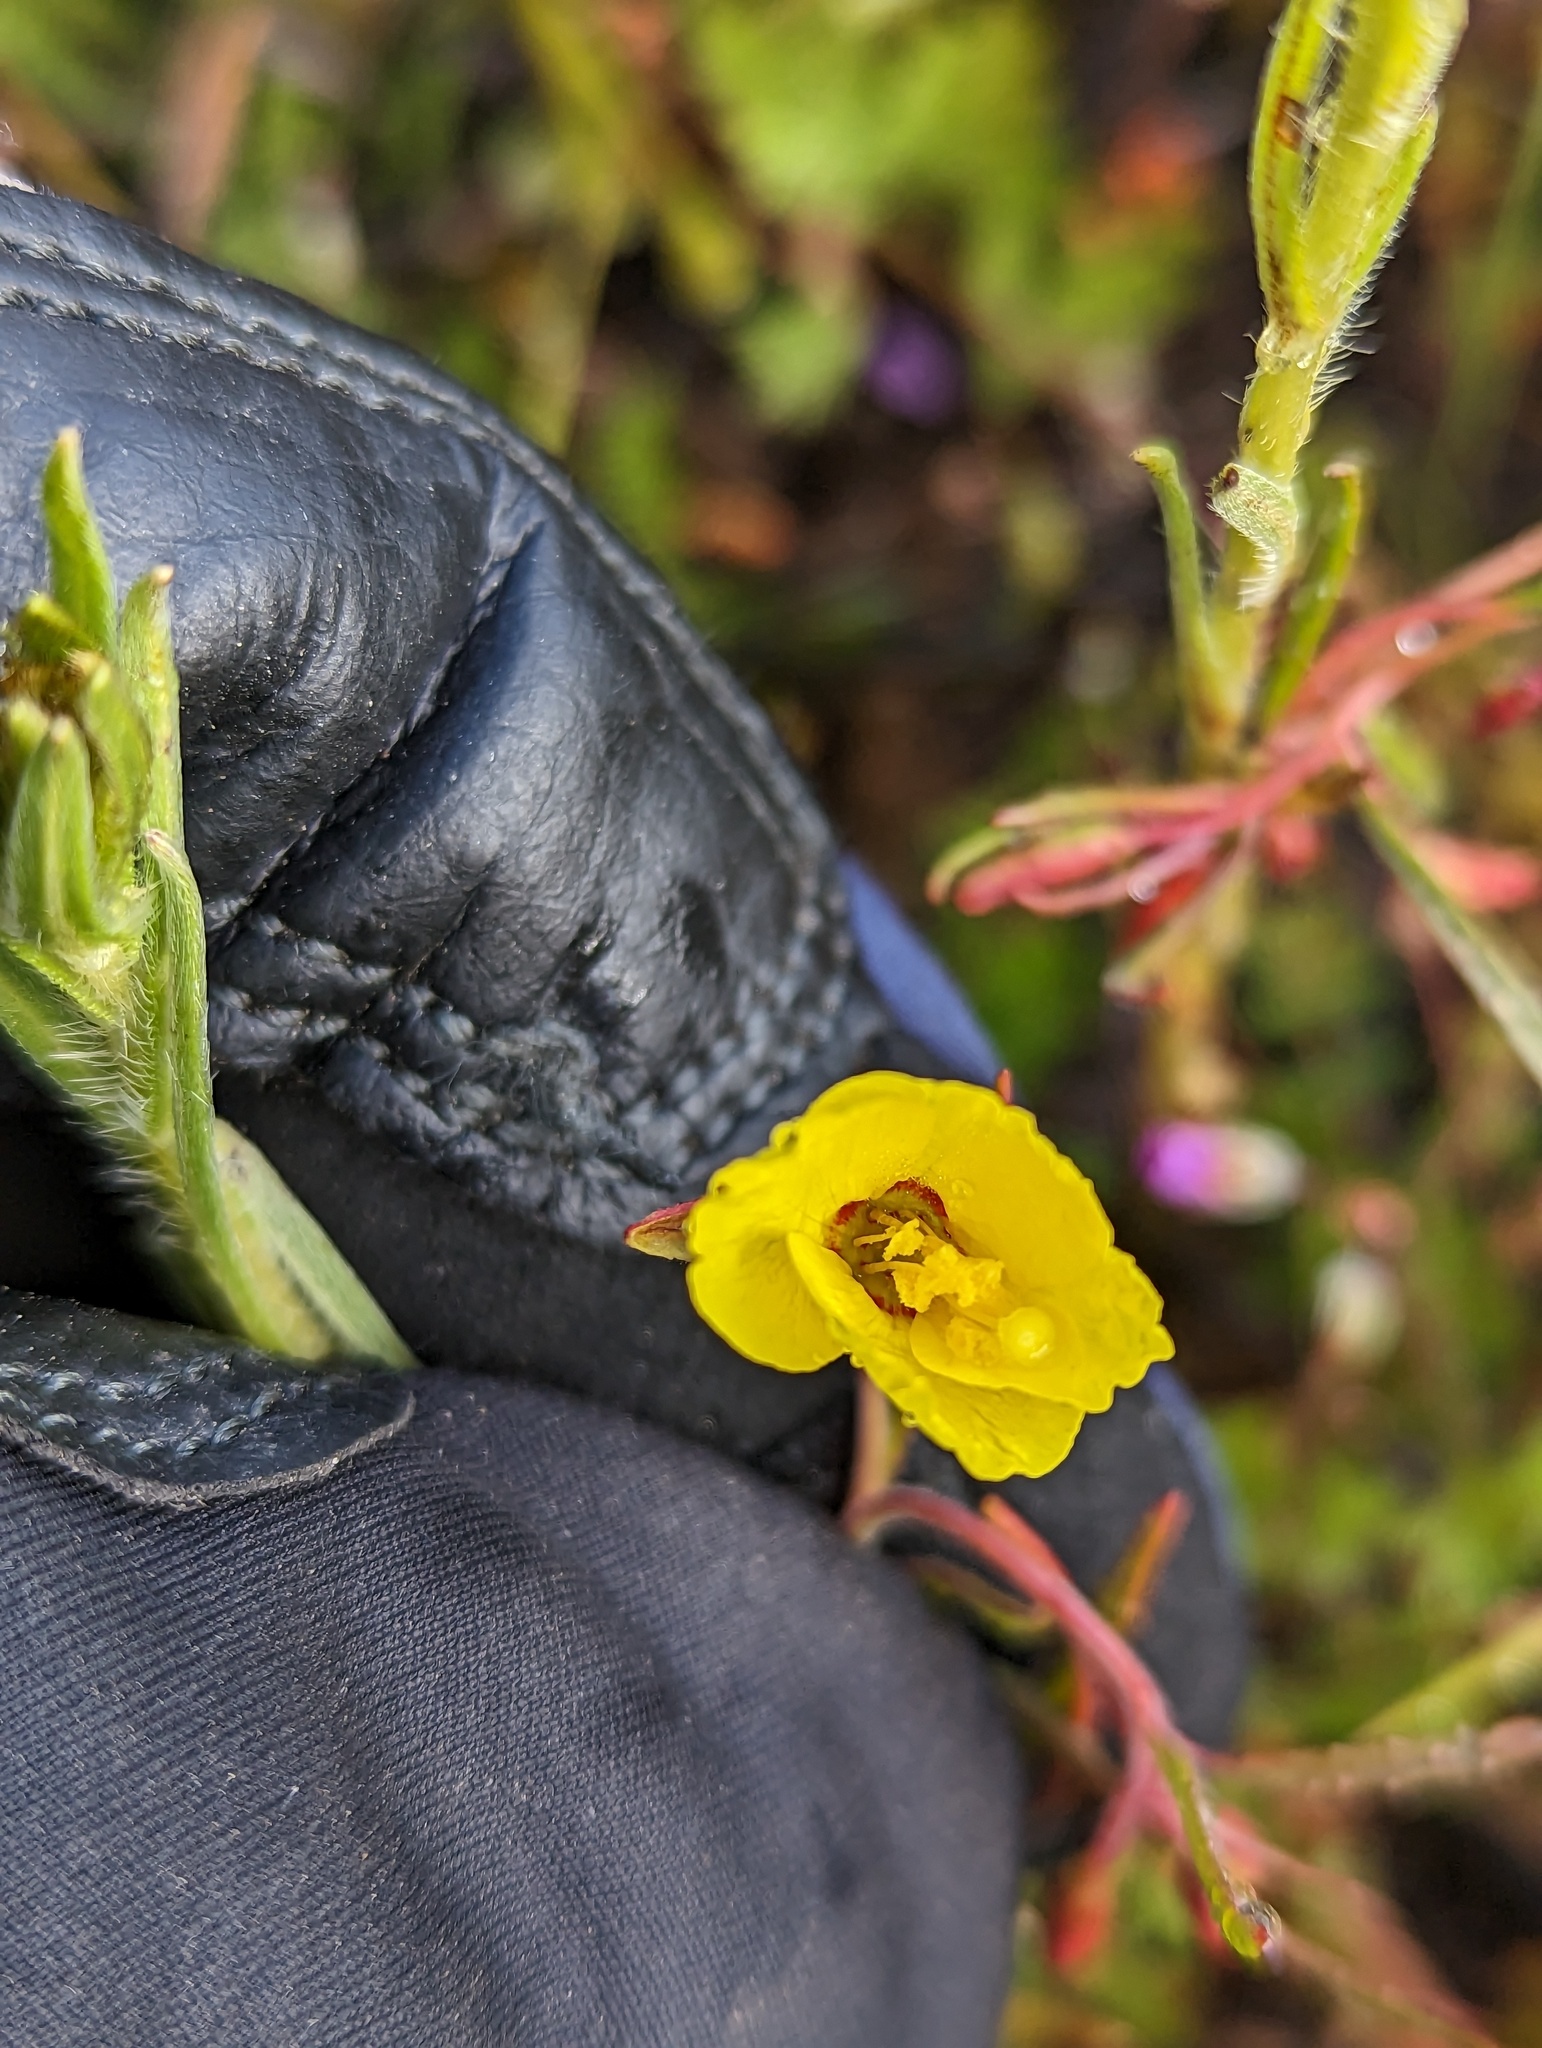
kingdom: Plantae
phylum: Tracheophyta
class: Magnoliopsida
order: Myrtales
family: Onagraceae
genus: Camissonia
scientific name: Camissonia campestris
